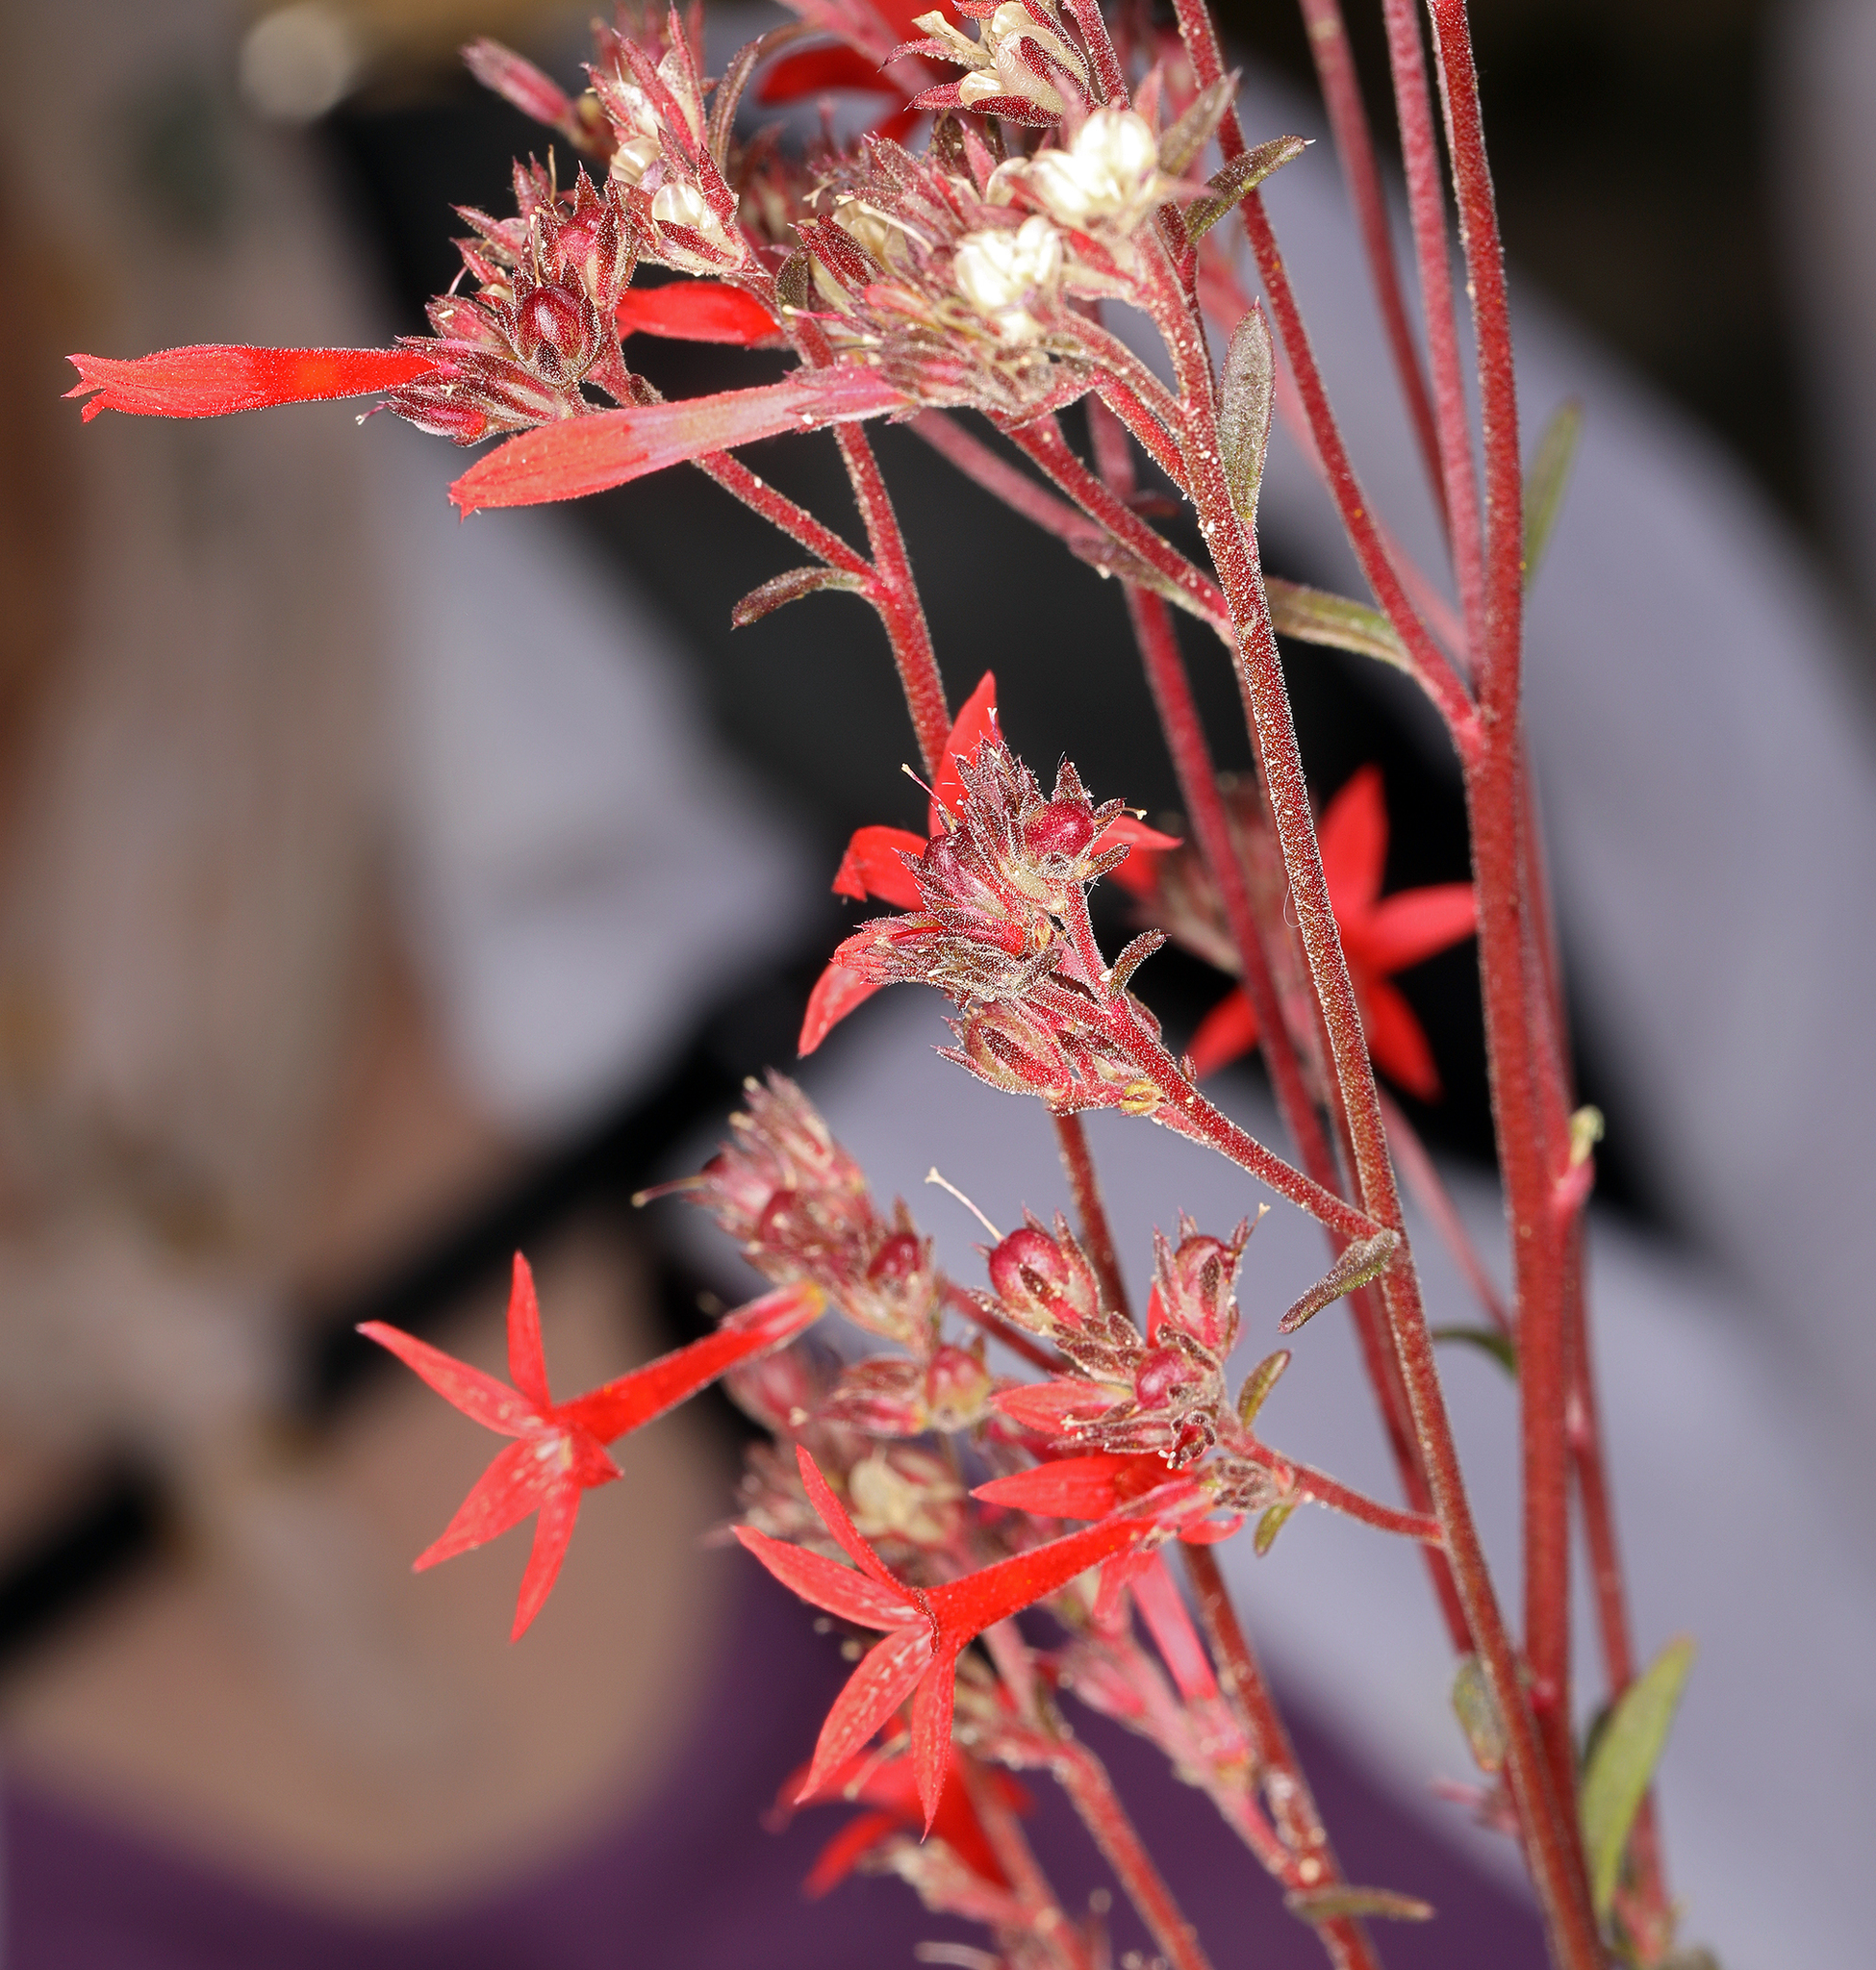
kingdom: Plantae
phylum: Tracheophyta
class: Magnoliopsida
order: Ericales
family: Polemoniaceae
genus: Ipomopsis
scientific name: Ipomopsis arizonica
